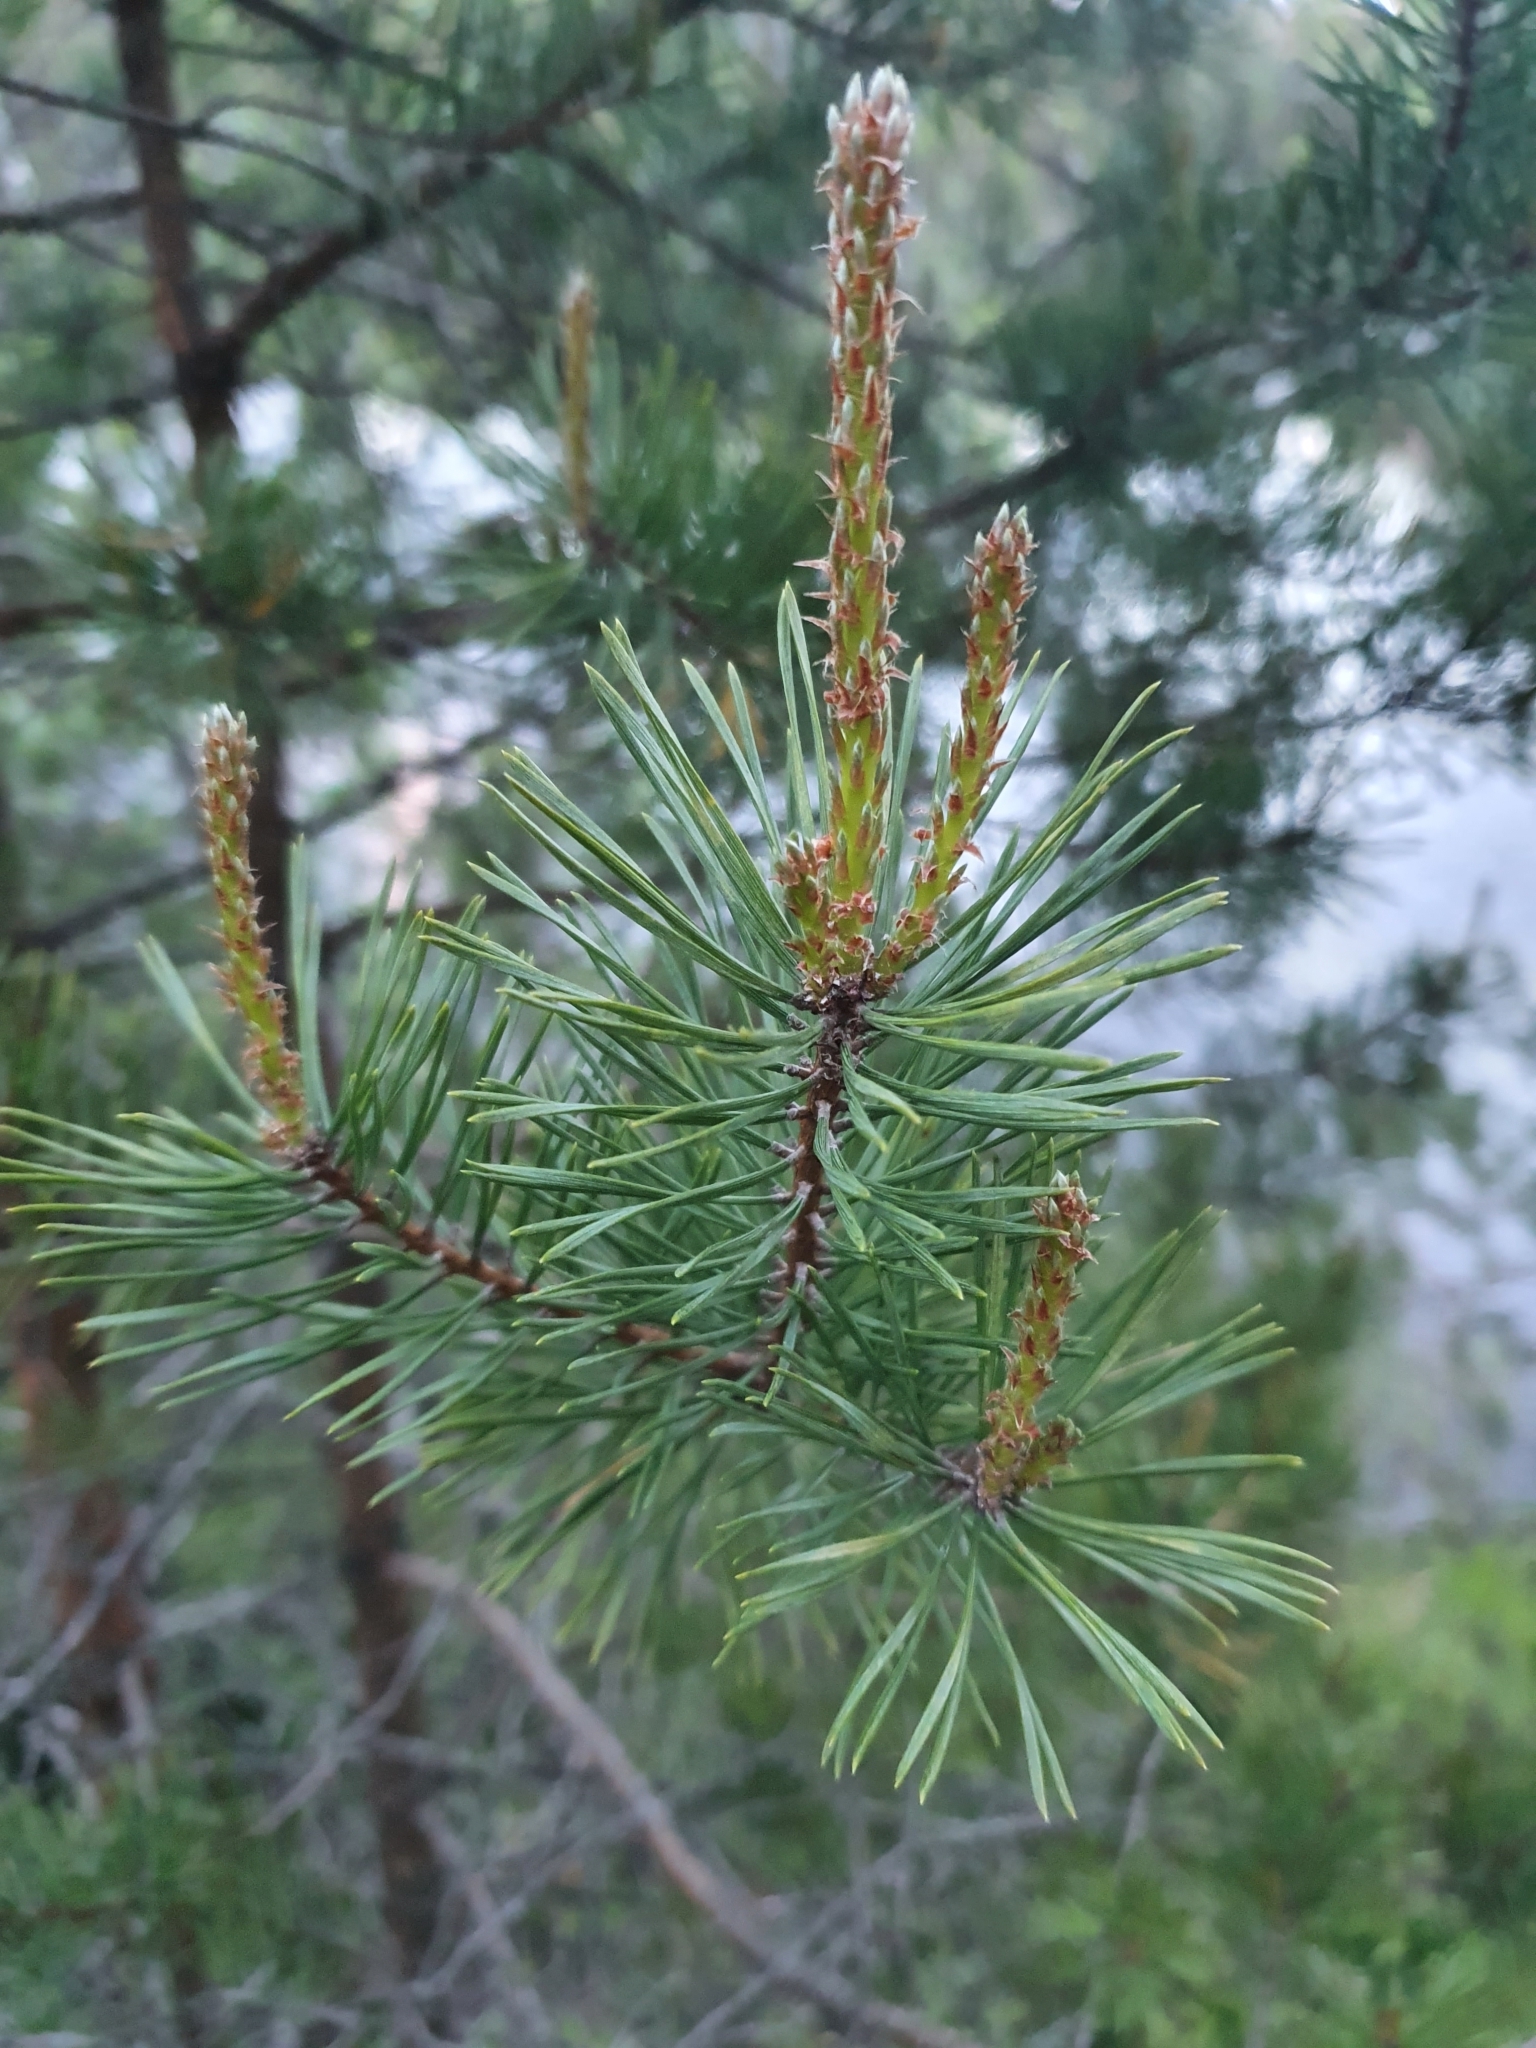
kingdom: Plantae
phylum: Tracheophyta
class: Pinopsida
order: Pinales
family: Pinaceae
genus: Pinus
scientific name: Pinus sylvestris
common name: Scots pine
